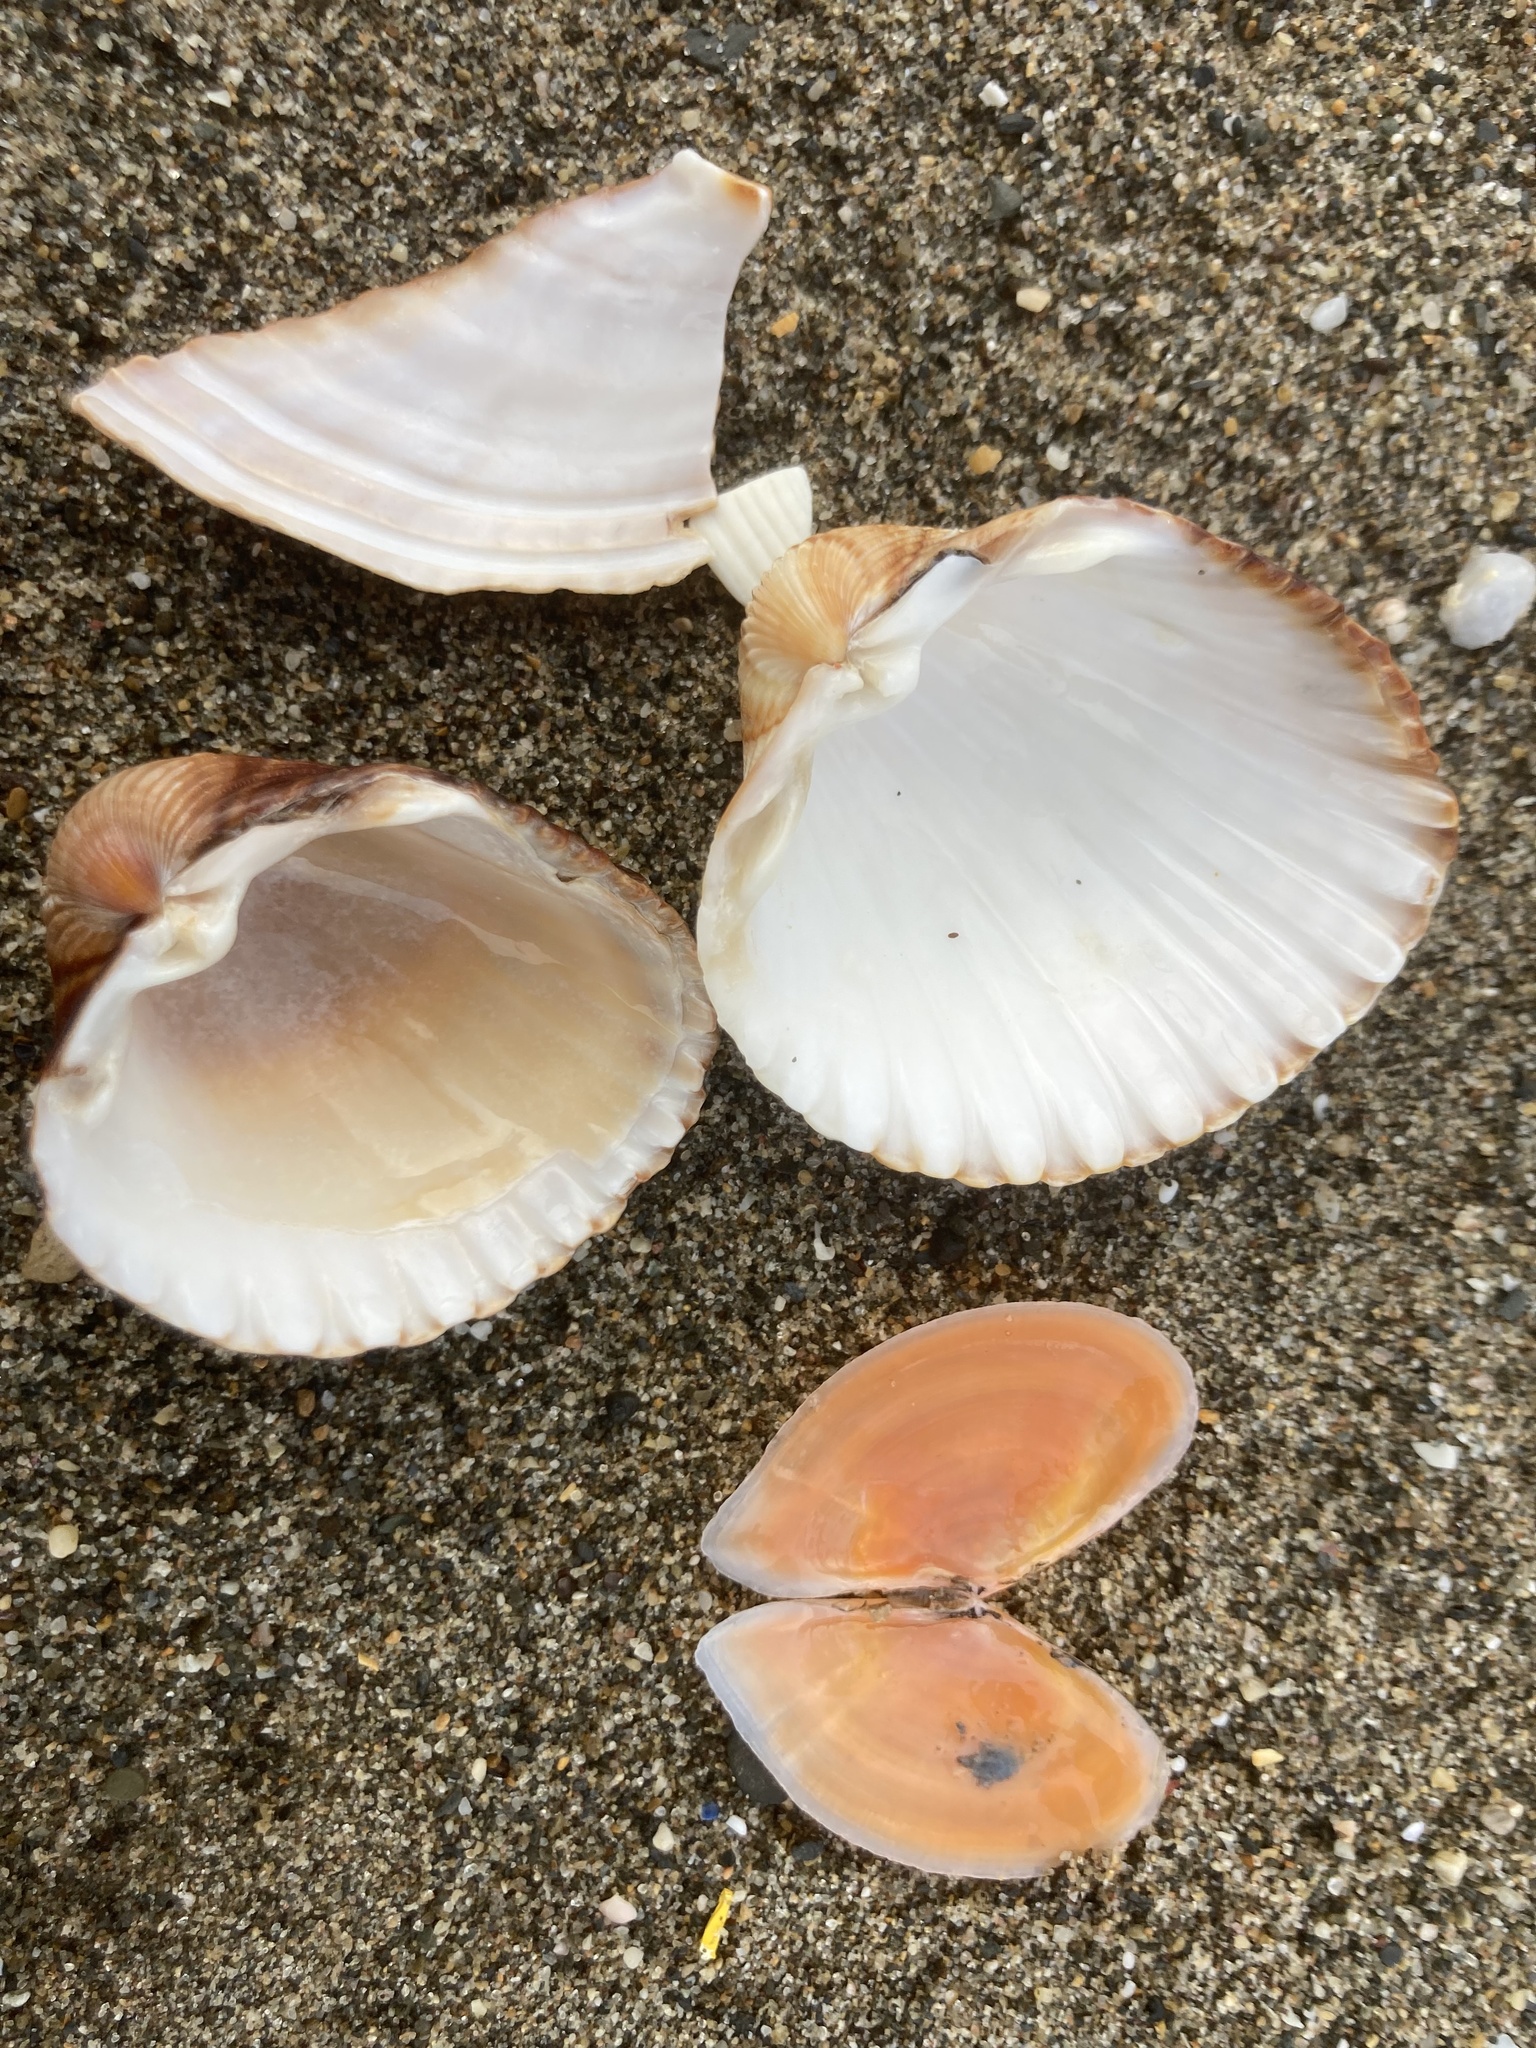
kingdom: Animalia
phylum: Mollusca
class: Bivalvia
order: Cardiida
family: Cardiidae
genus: Acanthocardia
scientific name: Acanthocardia tuberculata
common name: Rough cockle
